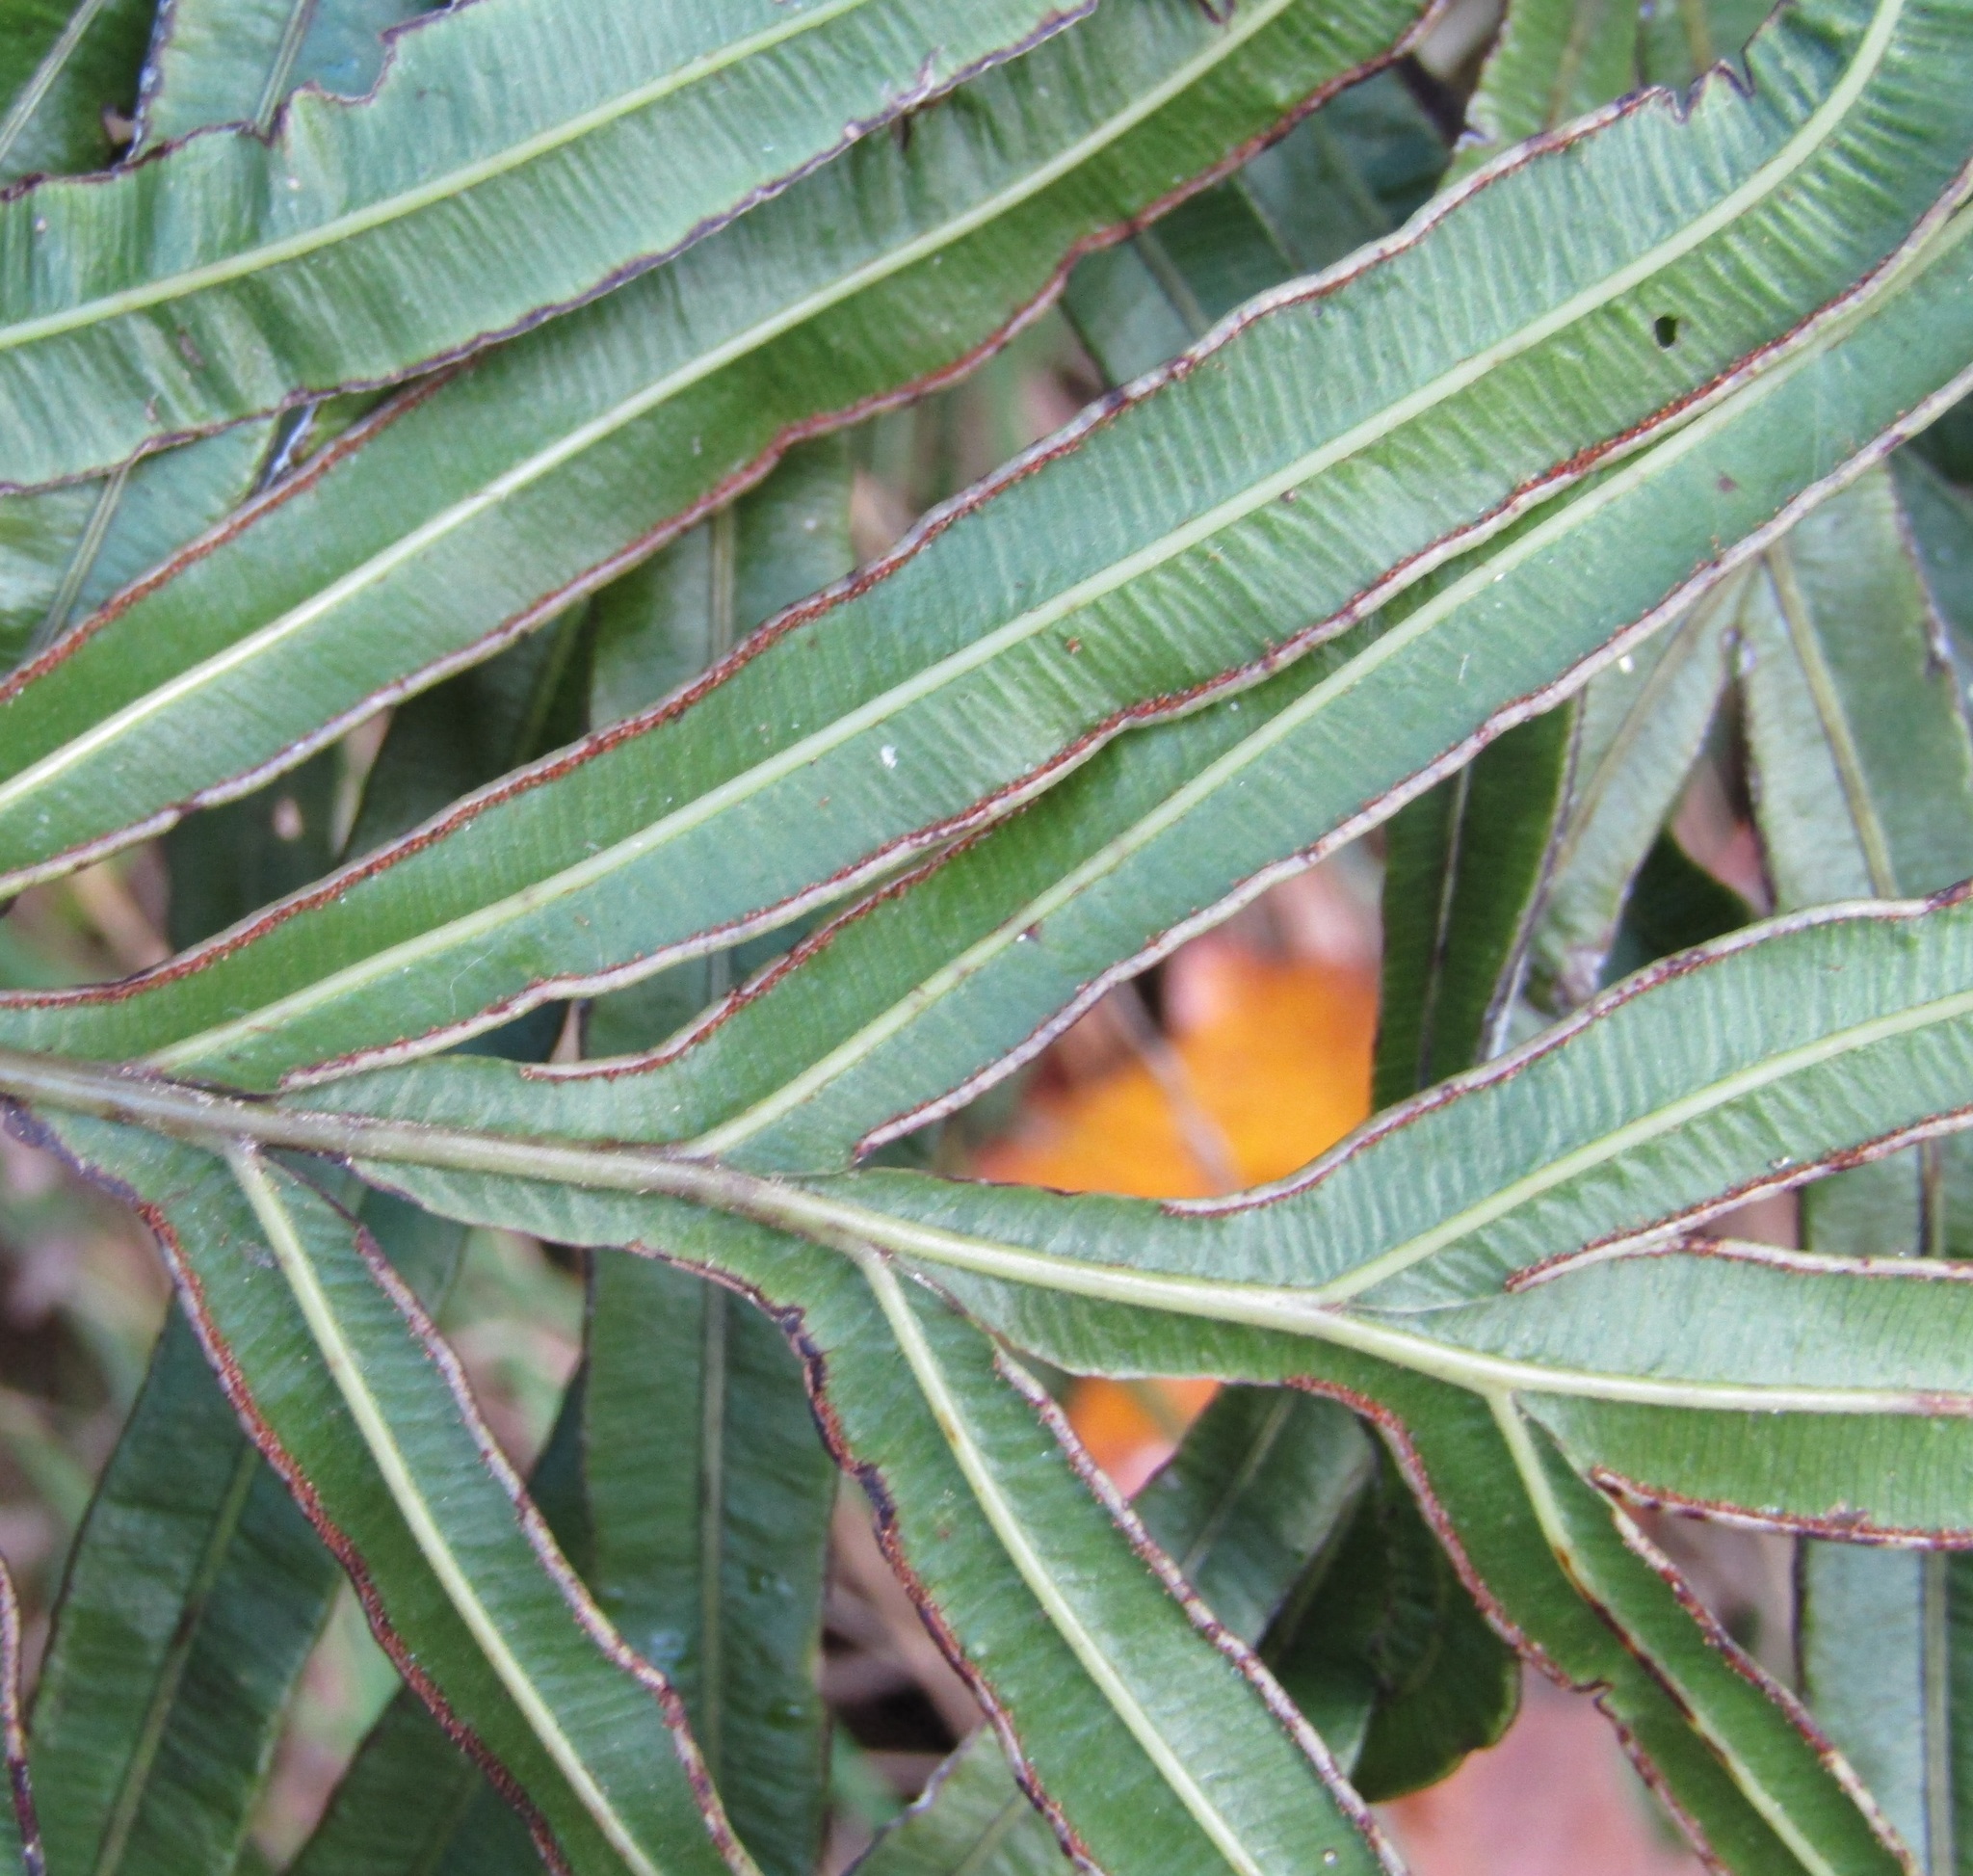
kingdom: Plantae
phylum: Tracheophyta
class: Polypodiopsida
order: Polypodiales
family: Pteridaceae
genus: Pteris
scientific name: Pteris cretica
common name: Ribbon fern
